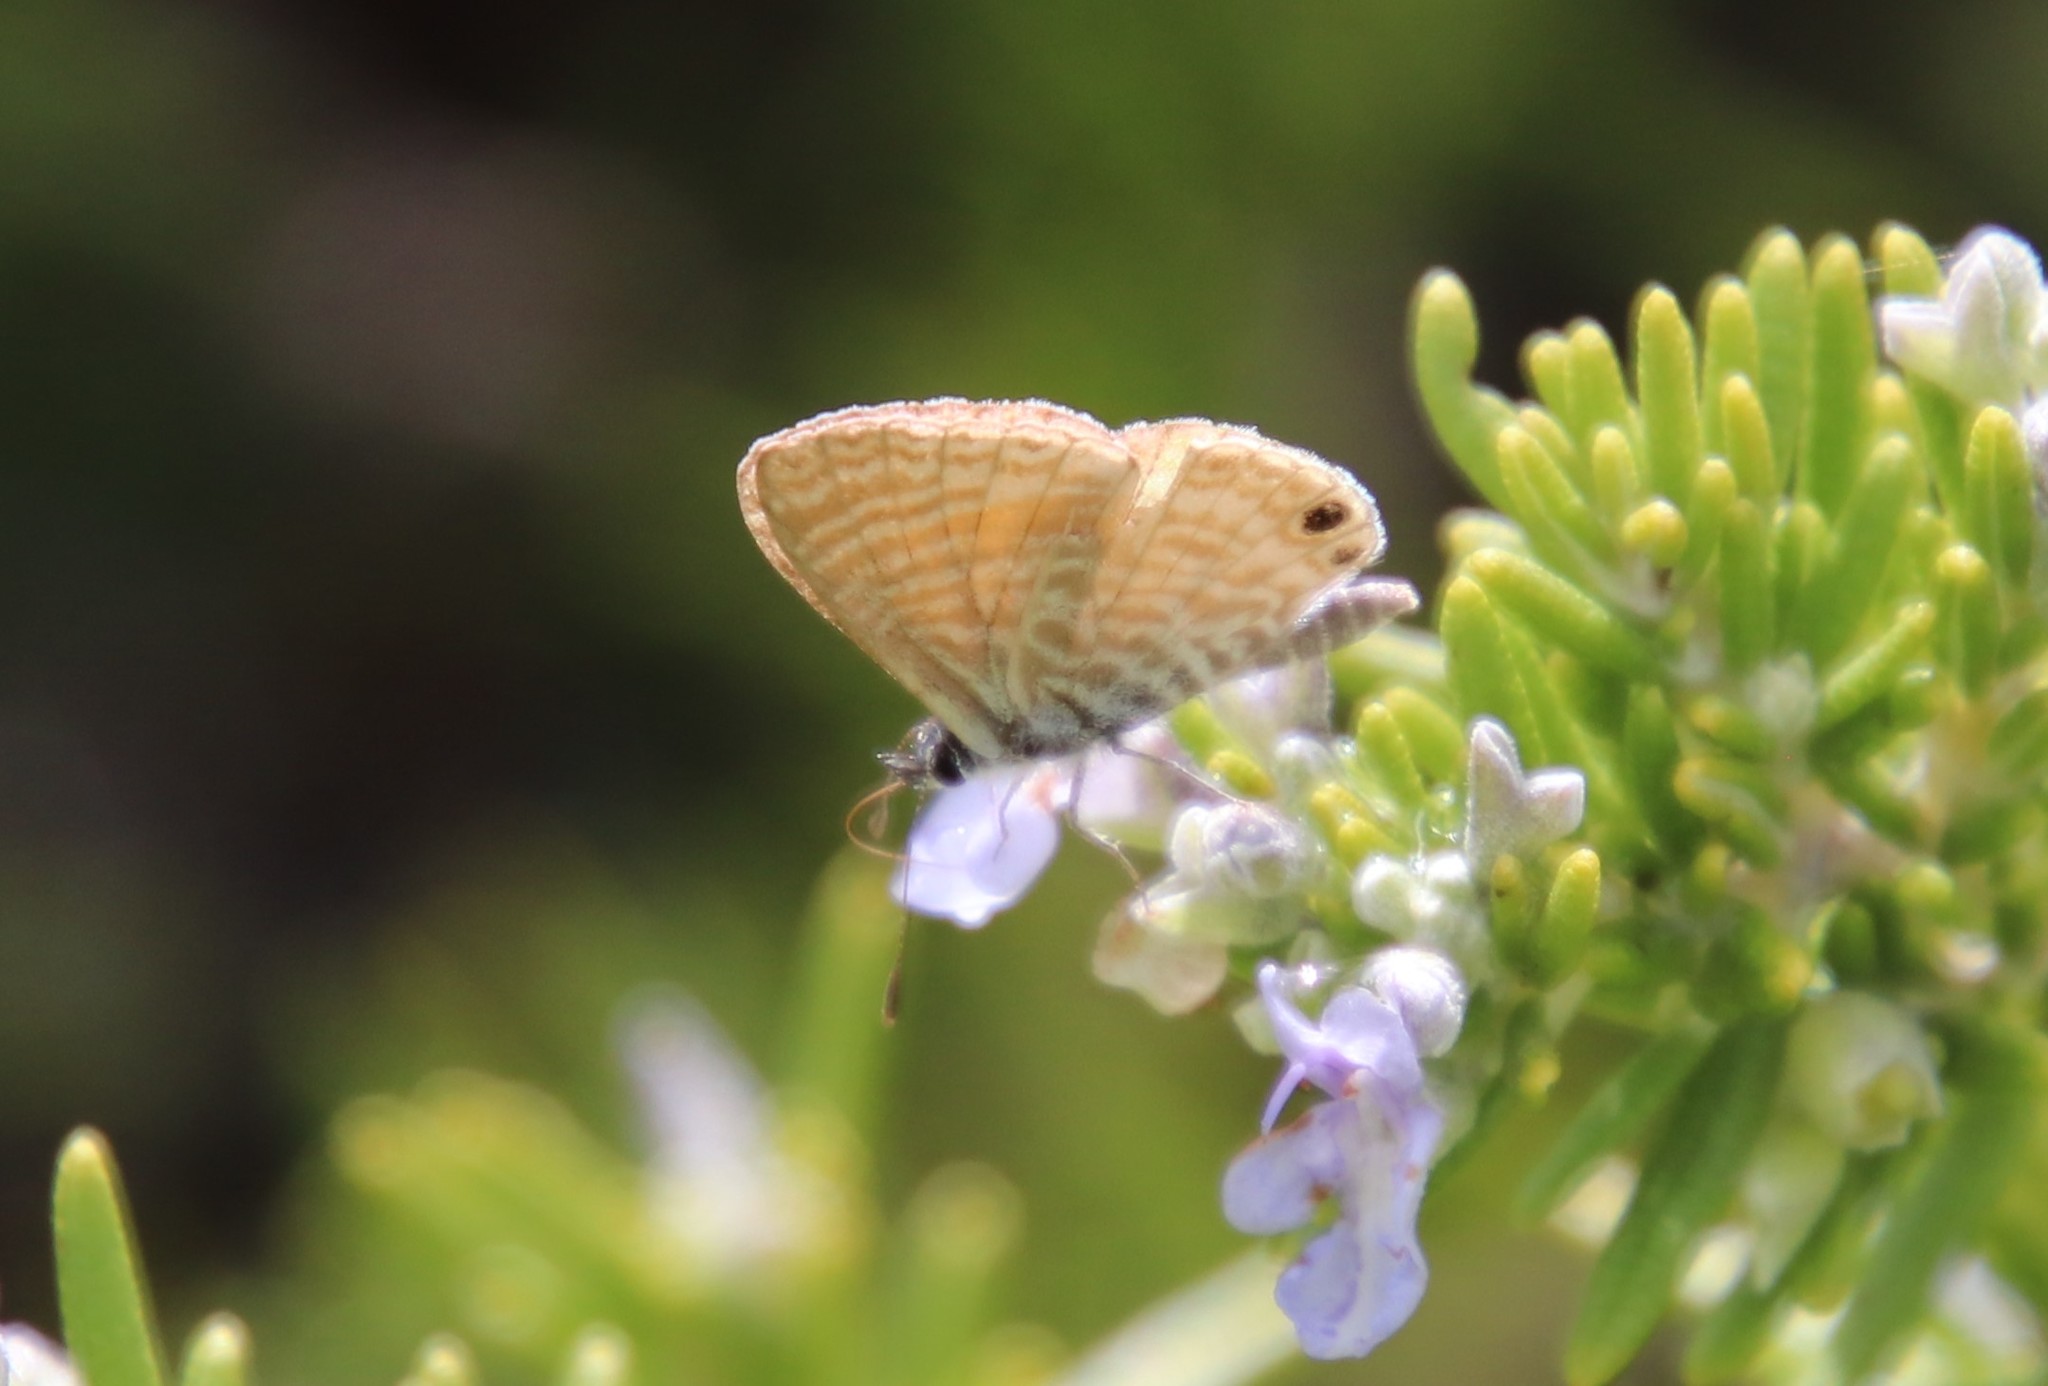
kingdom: Animalia
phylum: Arthropoda
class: Insecta
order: Lepidoptera
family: Lycaenidae
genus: Leptotes
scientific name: Leptotes marina
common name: Marine blue
